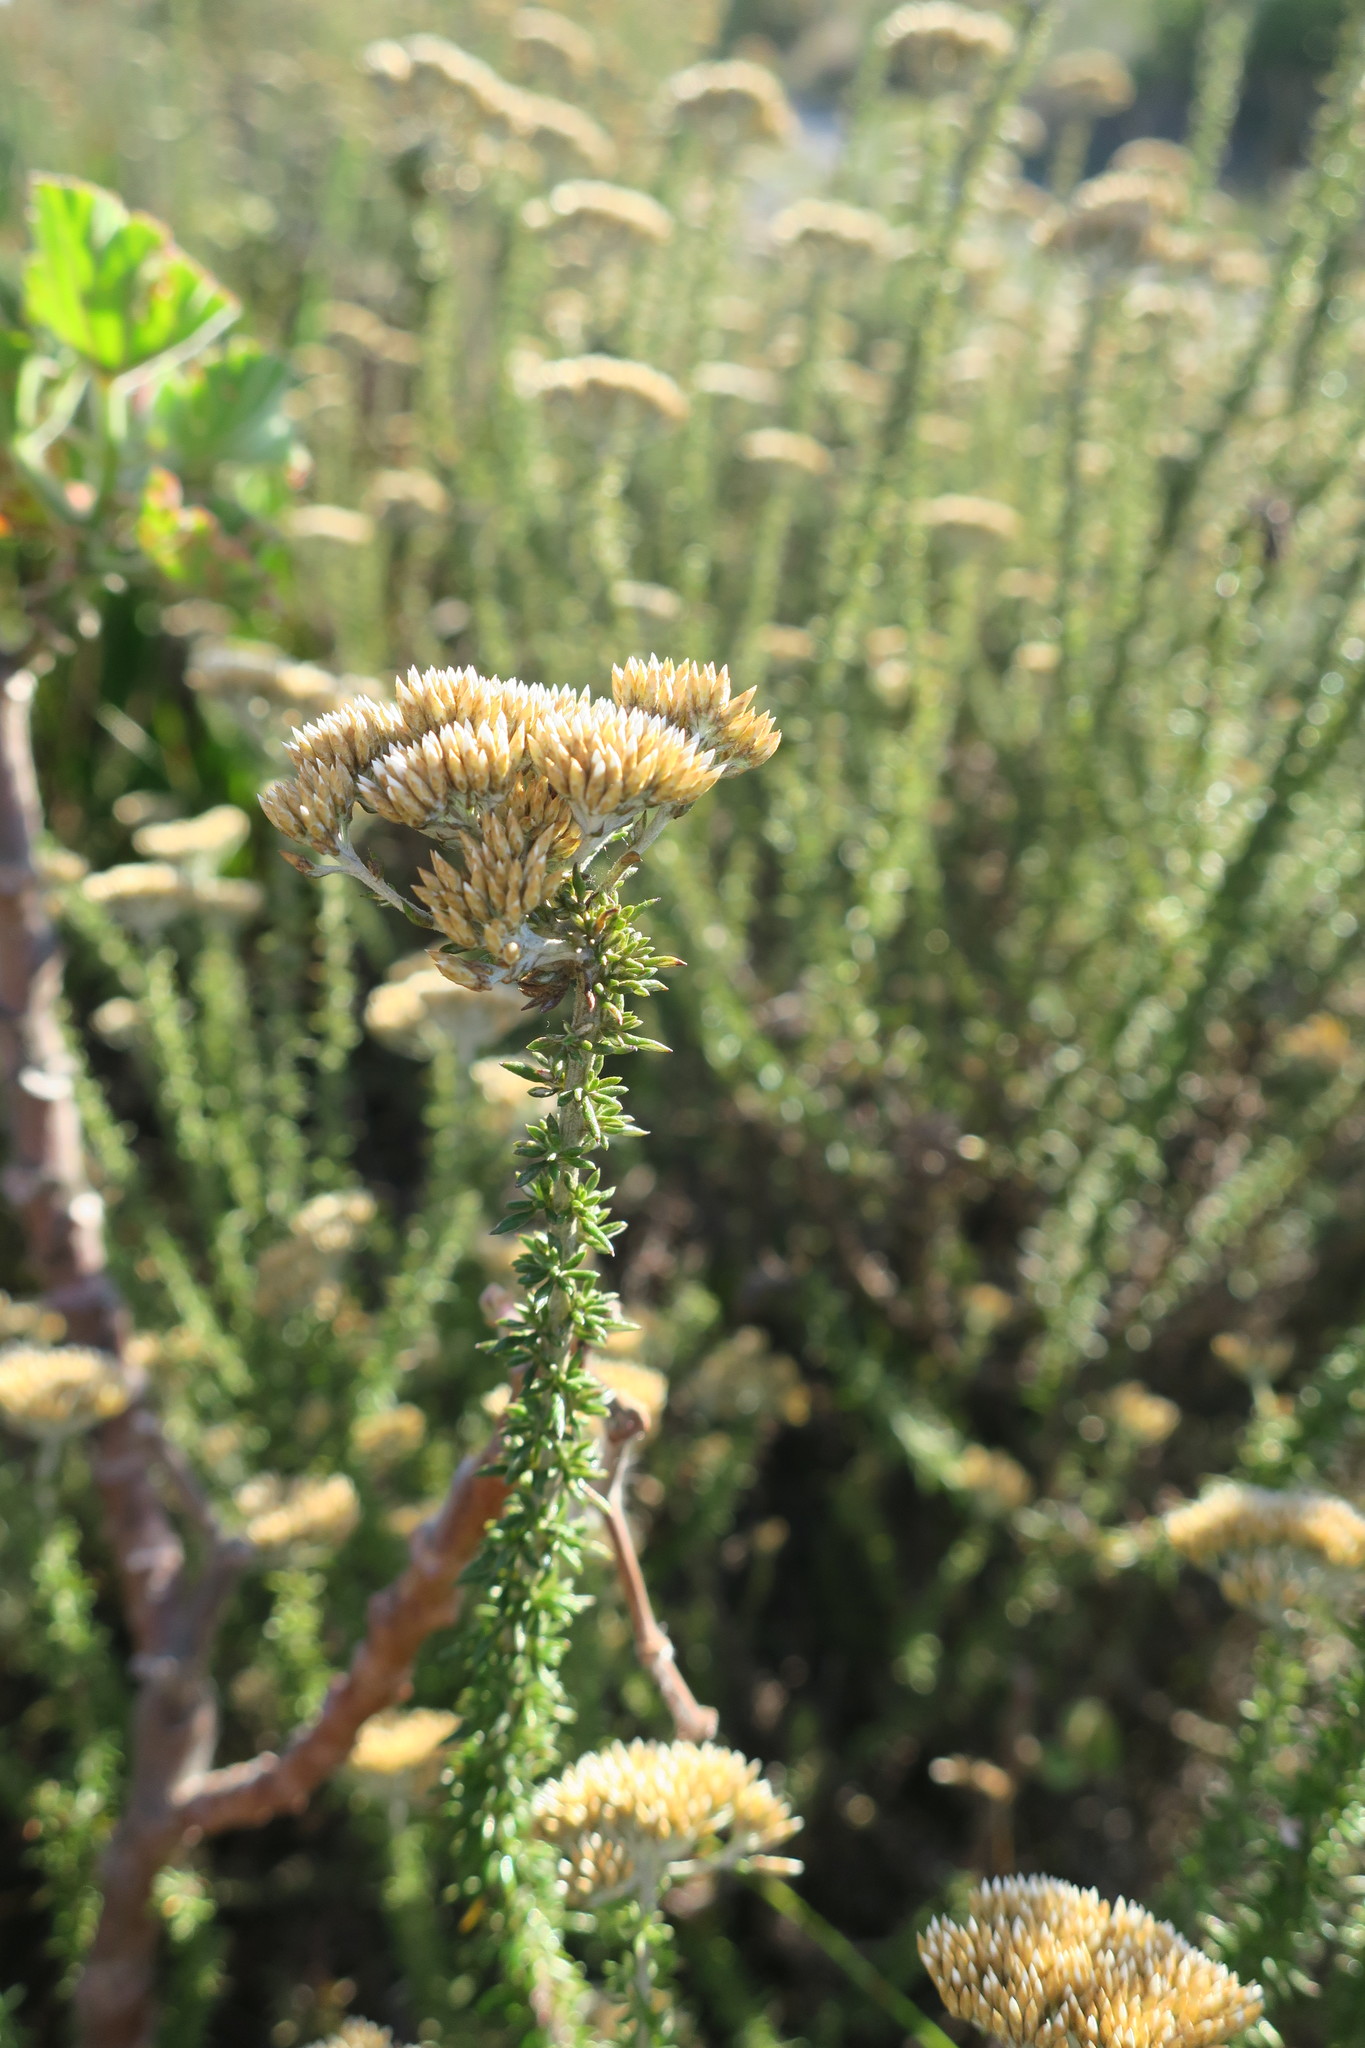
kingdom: Plantae
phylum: Tracheophyta
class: Magnoliopsida
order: Asterales
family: Asteraceae
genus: Metalasia
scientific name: Metalasia densa
